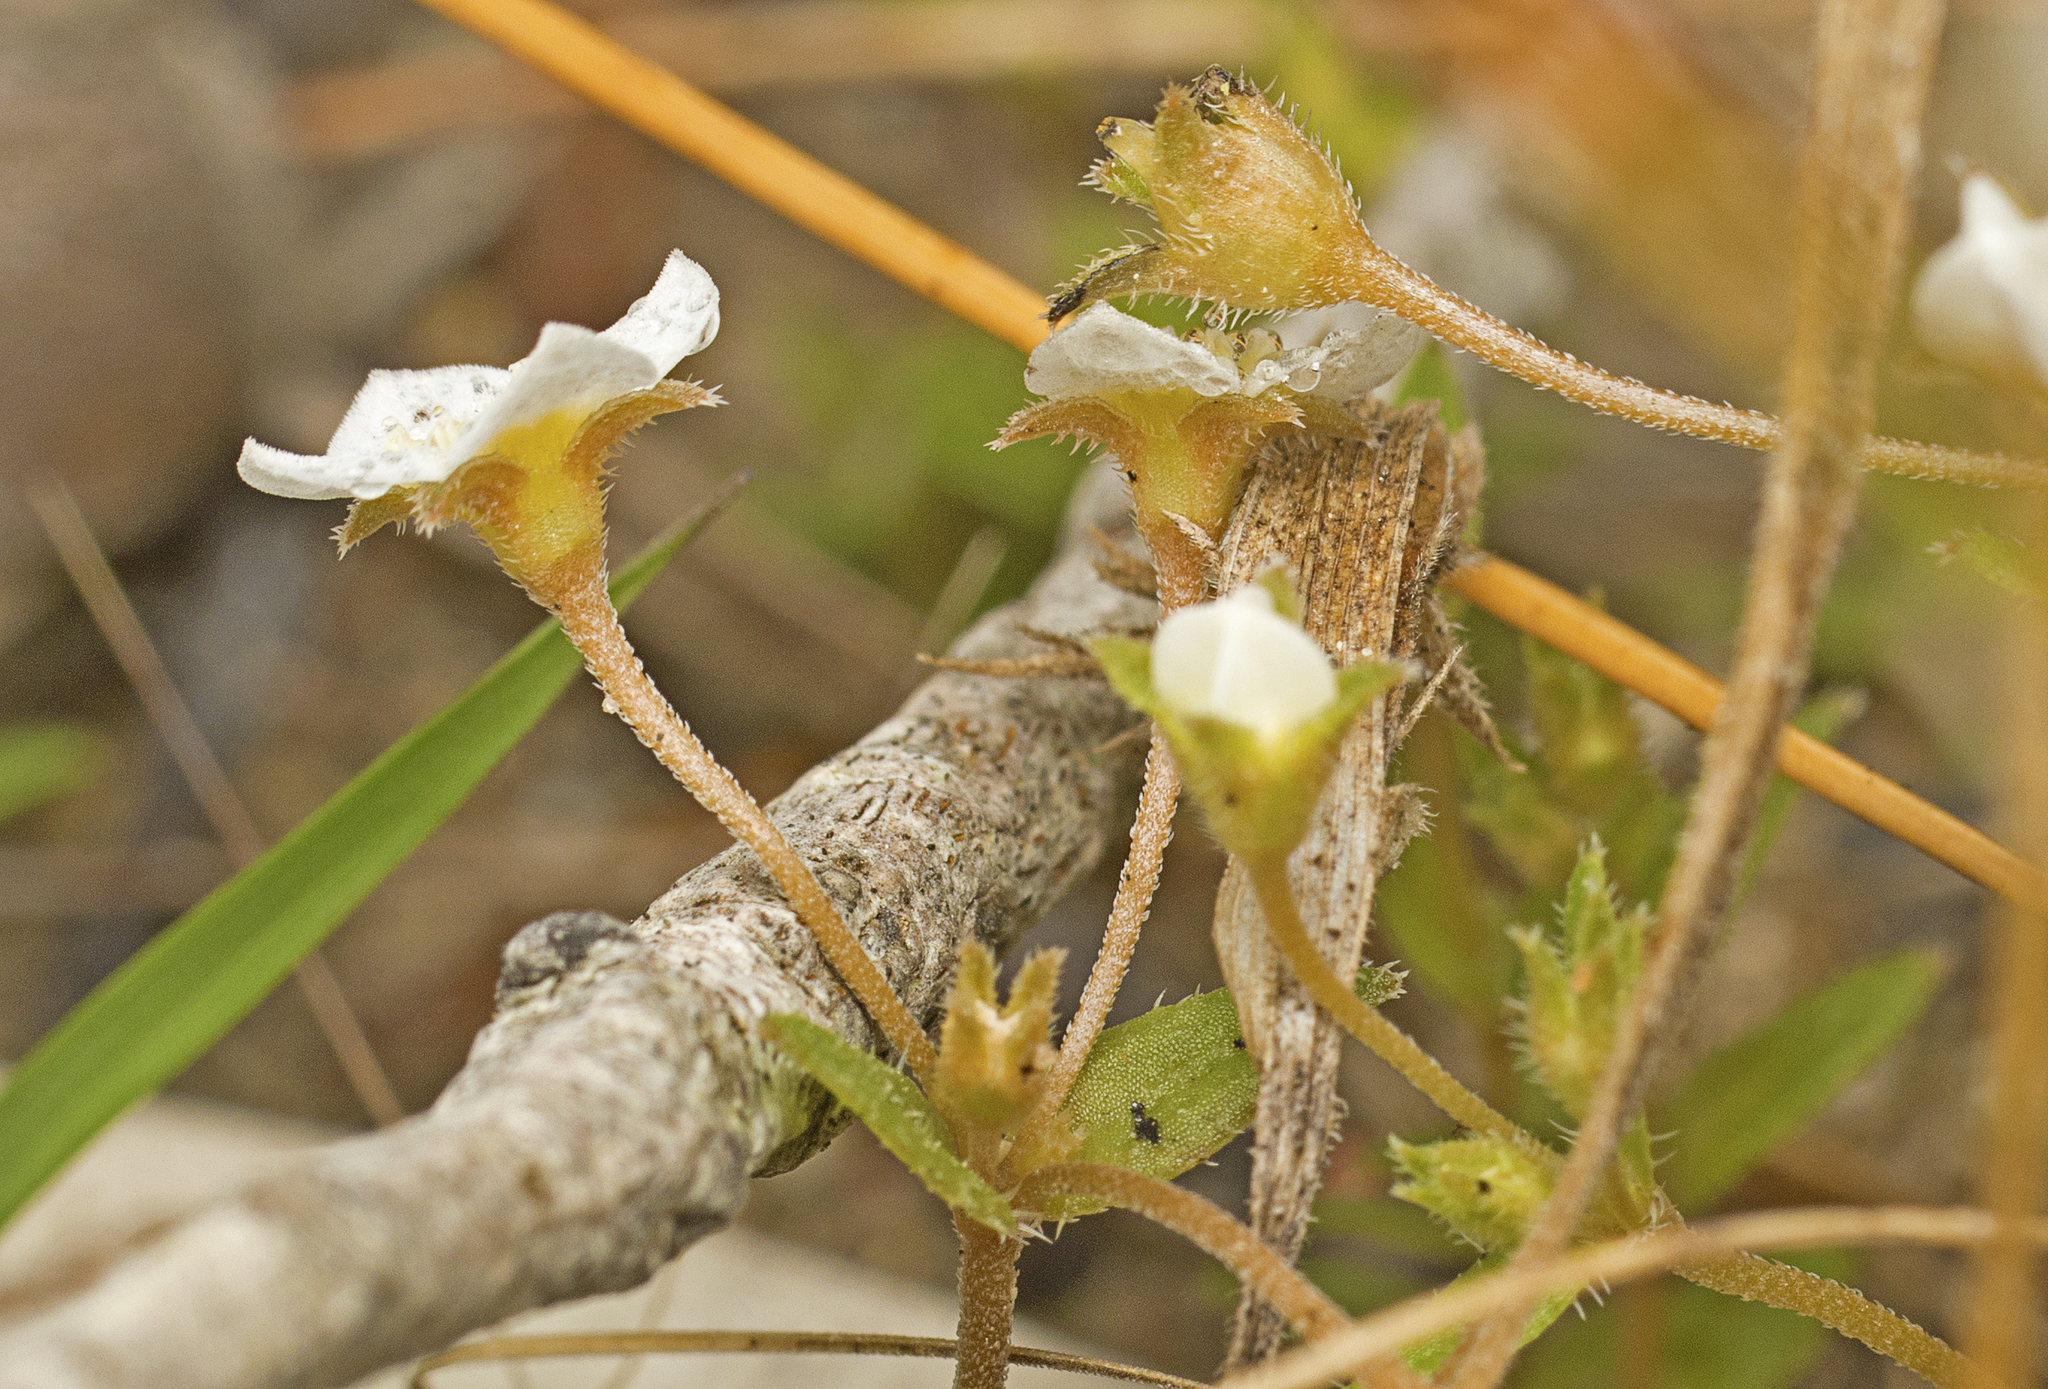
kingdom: Plantae
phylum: Tracheophyta
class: Magnoliopsida
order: Gentianales
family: Loganiaceae
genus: Mitrasacme
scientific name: Mitrasacme paludosa
